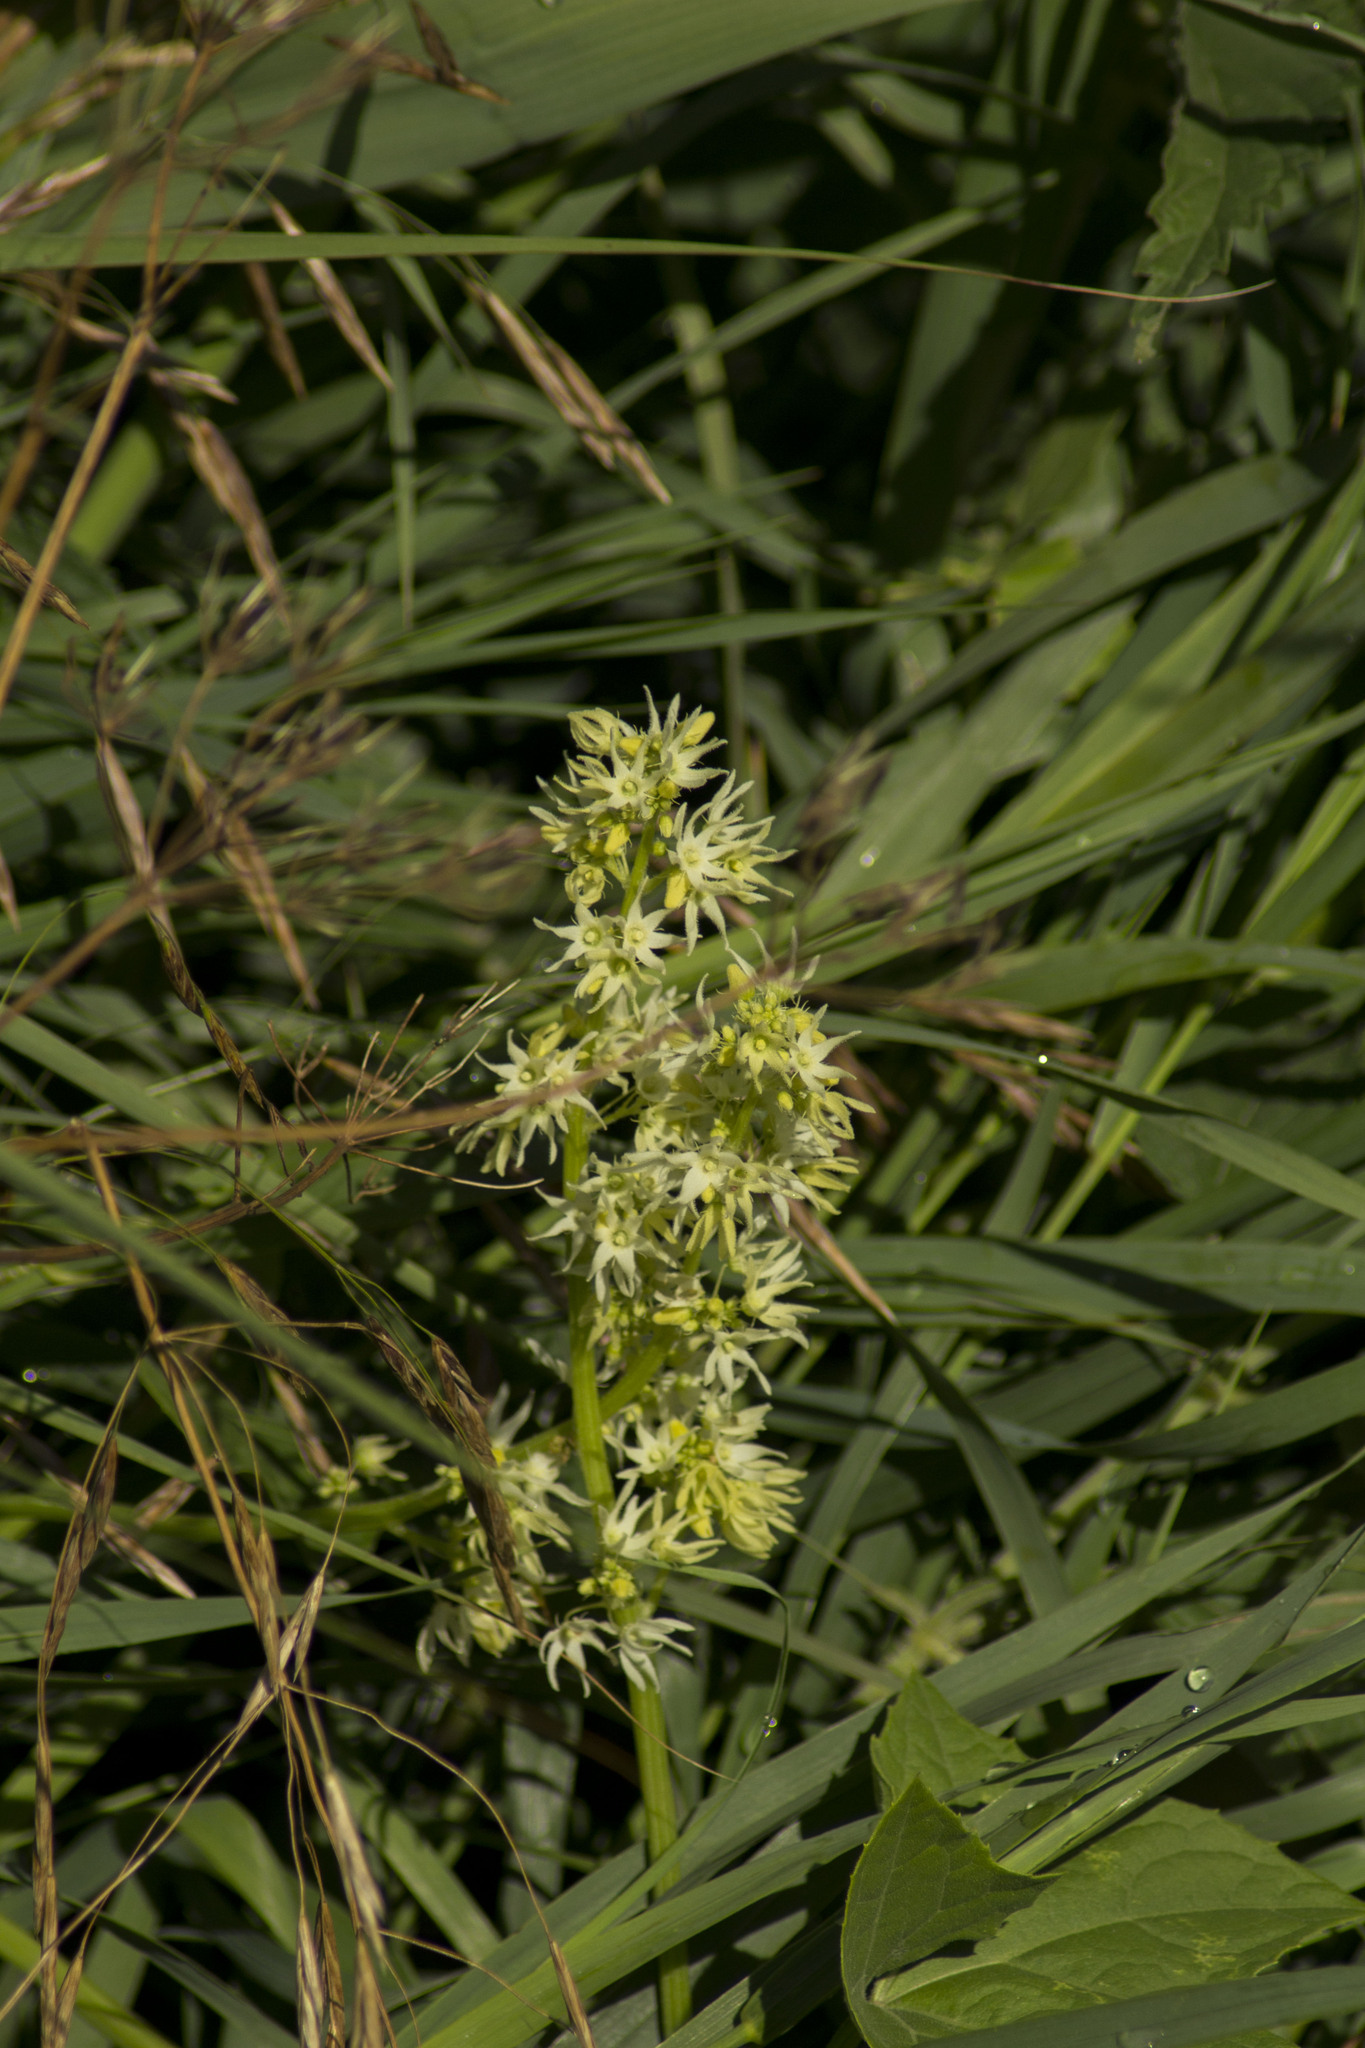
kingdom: Plantae
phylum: Tracheophyta
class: Magnoliopsida
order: Cucurbitales
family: Cucurbitaceae
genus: Echinocystis
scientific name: Echinocystis lobata
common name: Wild cucumber
